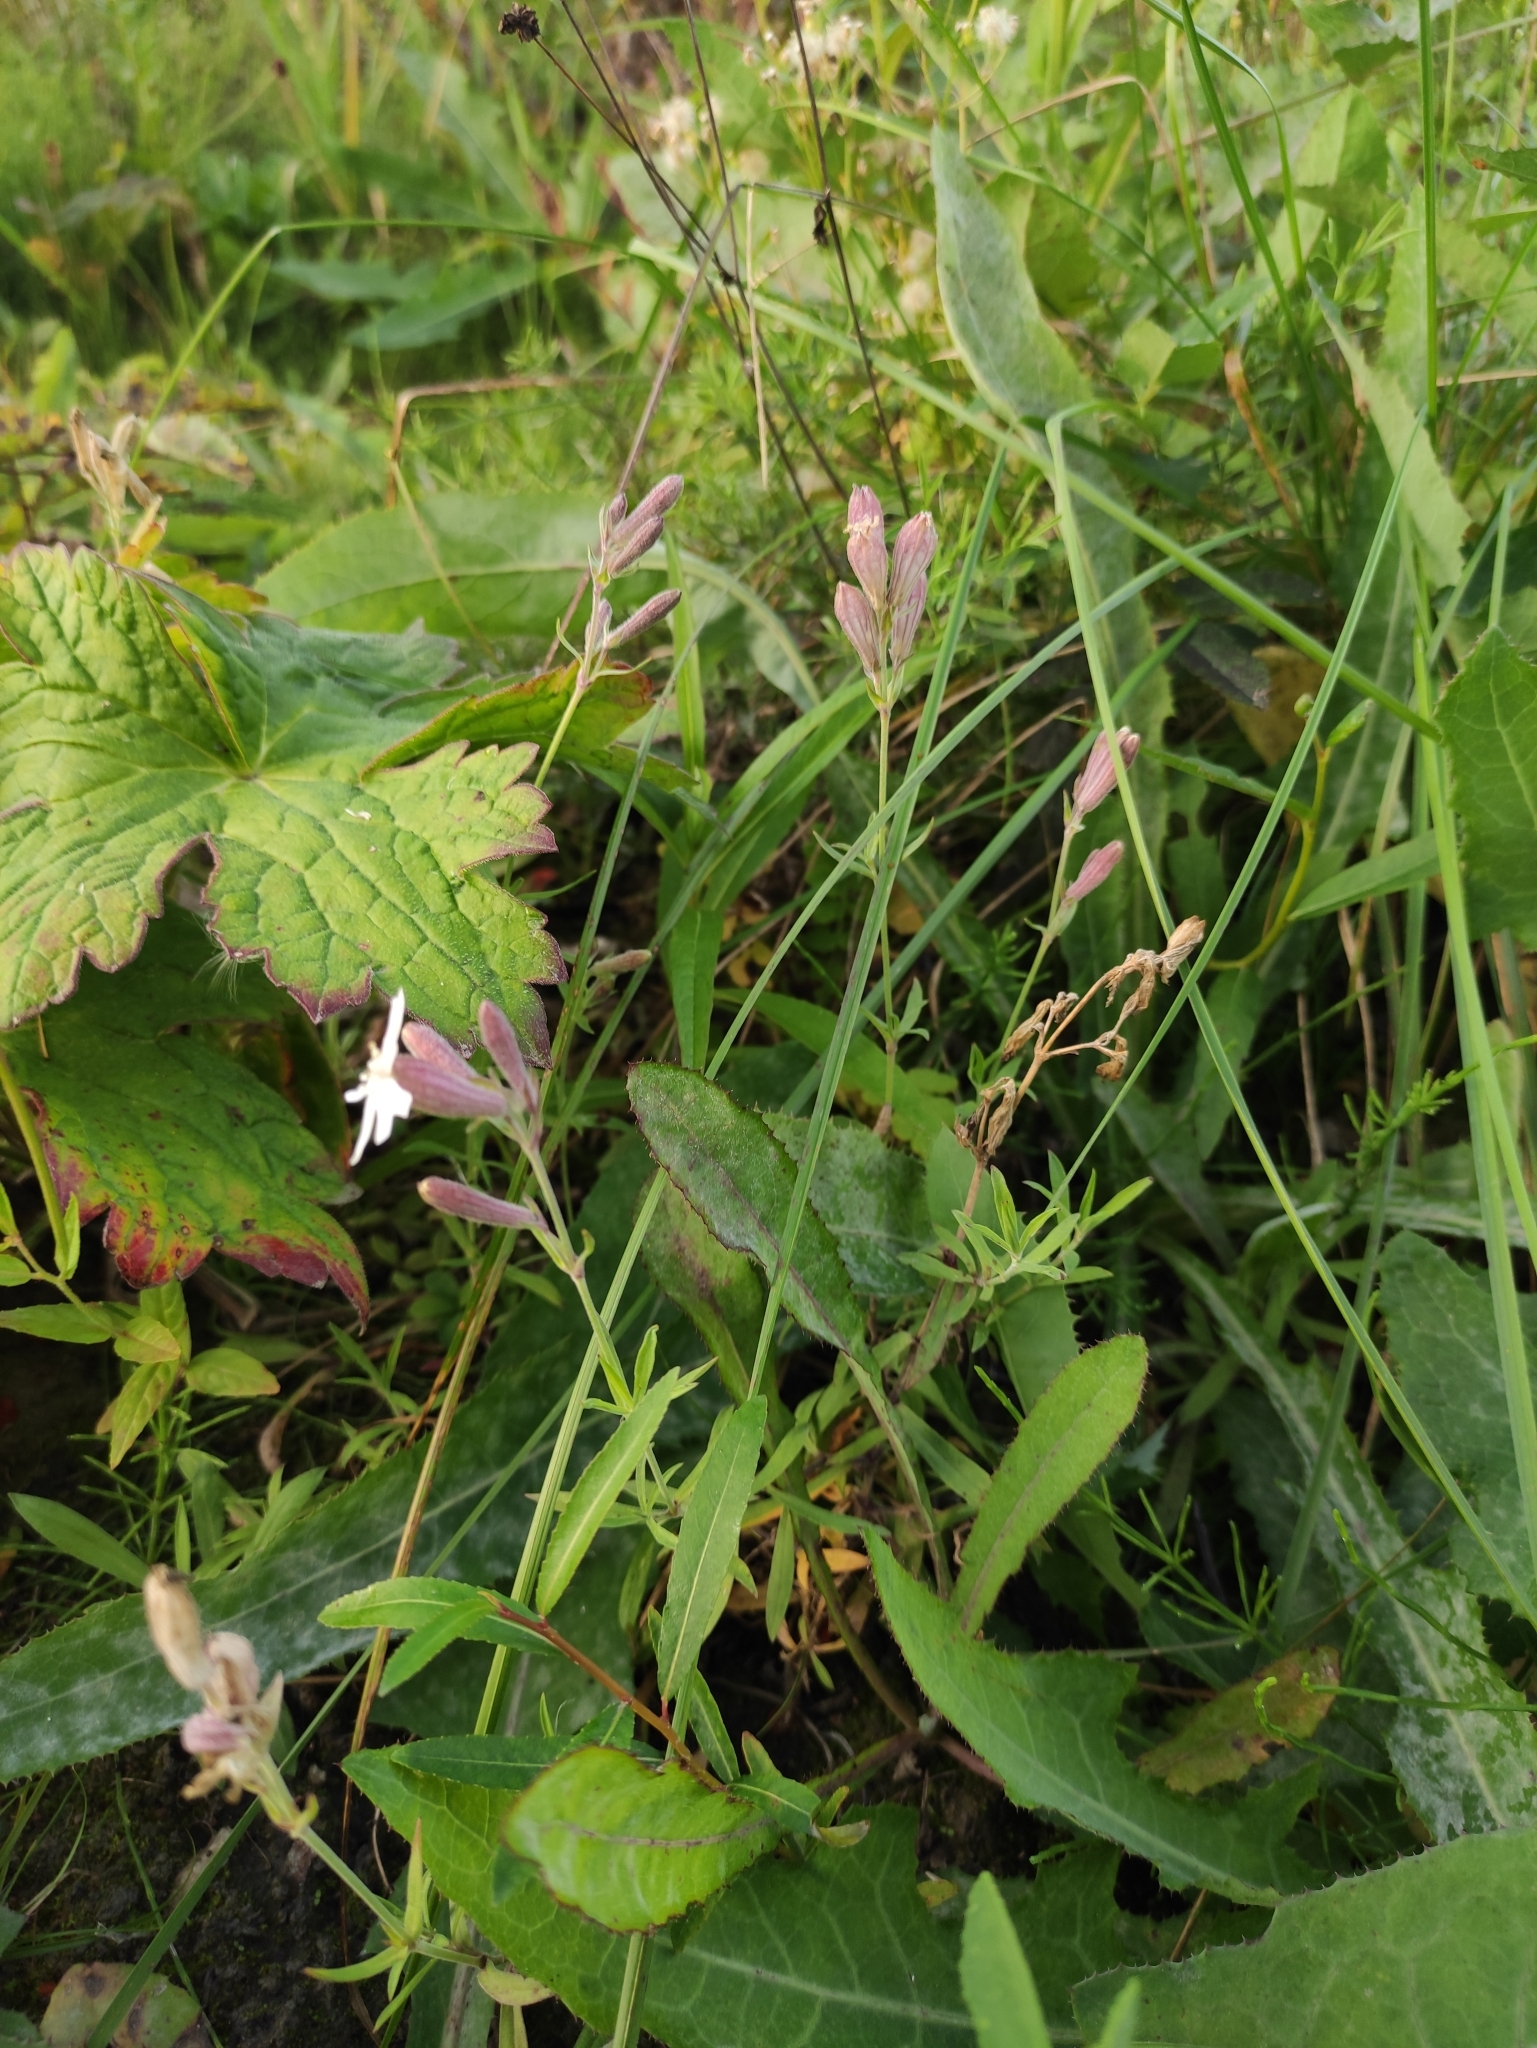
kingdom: Plantae
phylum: Tracheophyta
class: Magnoliopsida
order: Caryophyllales
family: Caryophyllaceae
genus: Silene
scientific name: Silene amoena
